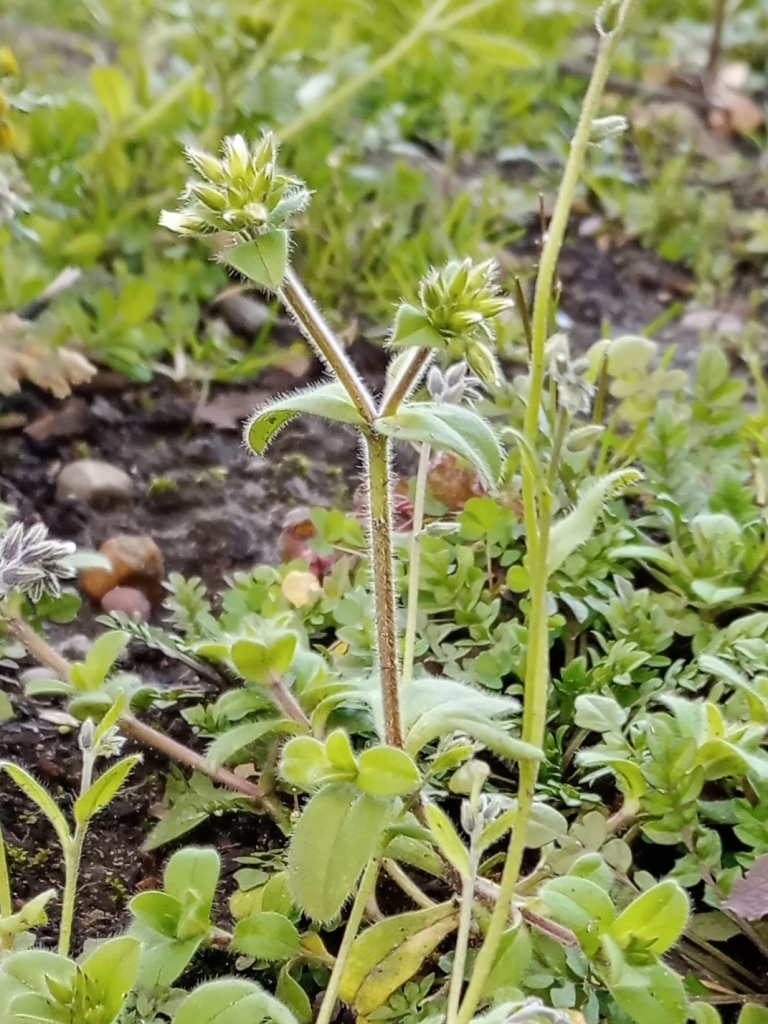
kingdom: Plantae
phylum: Tracheophyta
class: Magnoliopsida
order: Caryophyllales
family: Caryophyllaceae
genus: Cerastium
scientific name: Cerastium glomeratum
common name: Sticky chickweed
